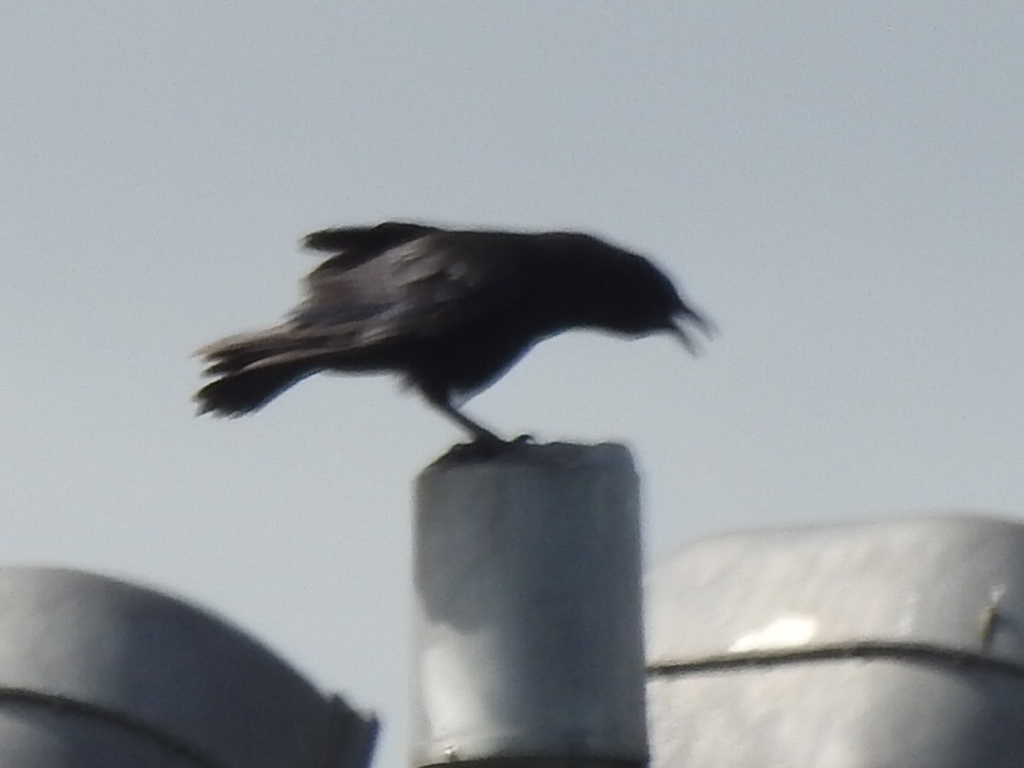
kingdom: Animalia
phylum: Chordata
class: Aves
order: Passeriformes
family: Corvidae
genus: Corvus
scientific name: Corvus brachyrhynchos
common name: American crow
